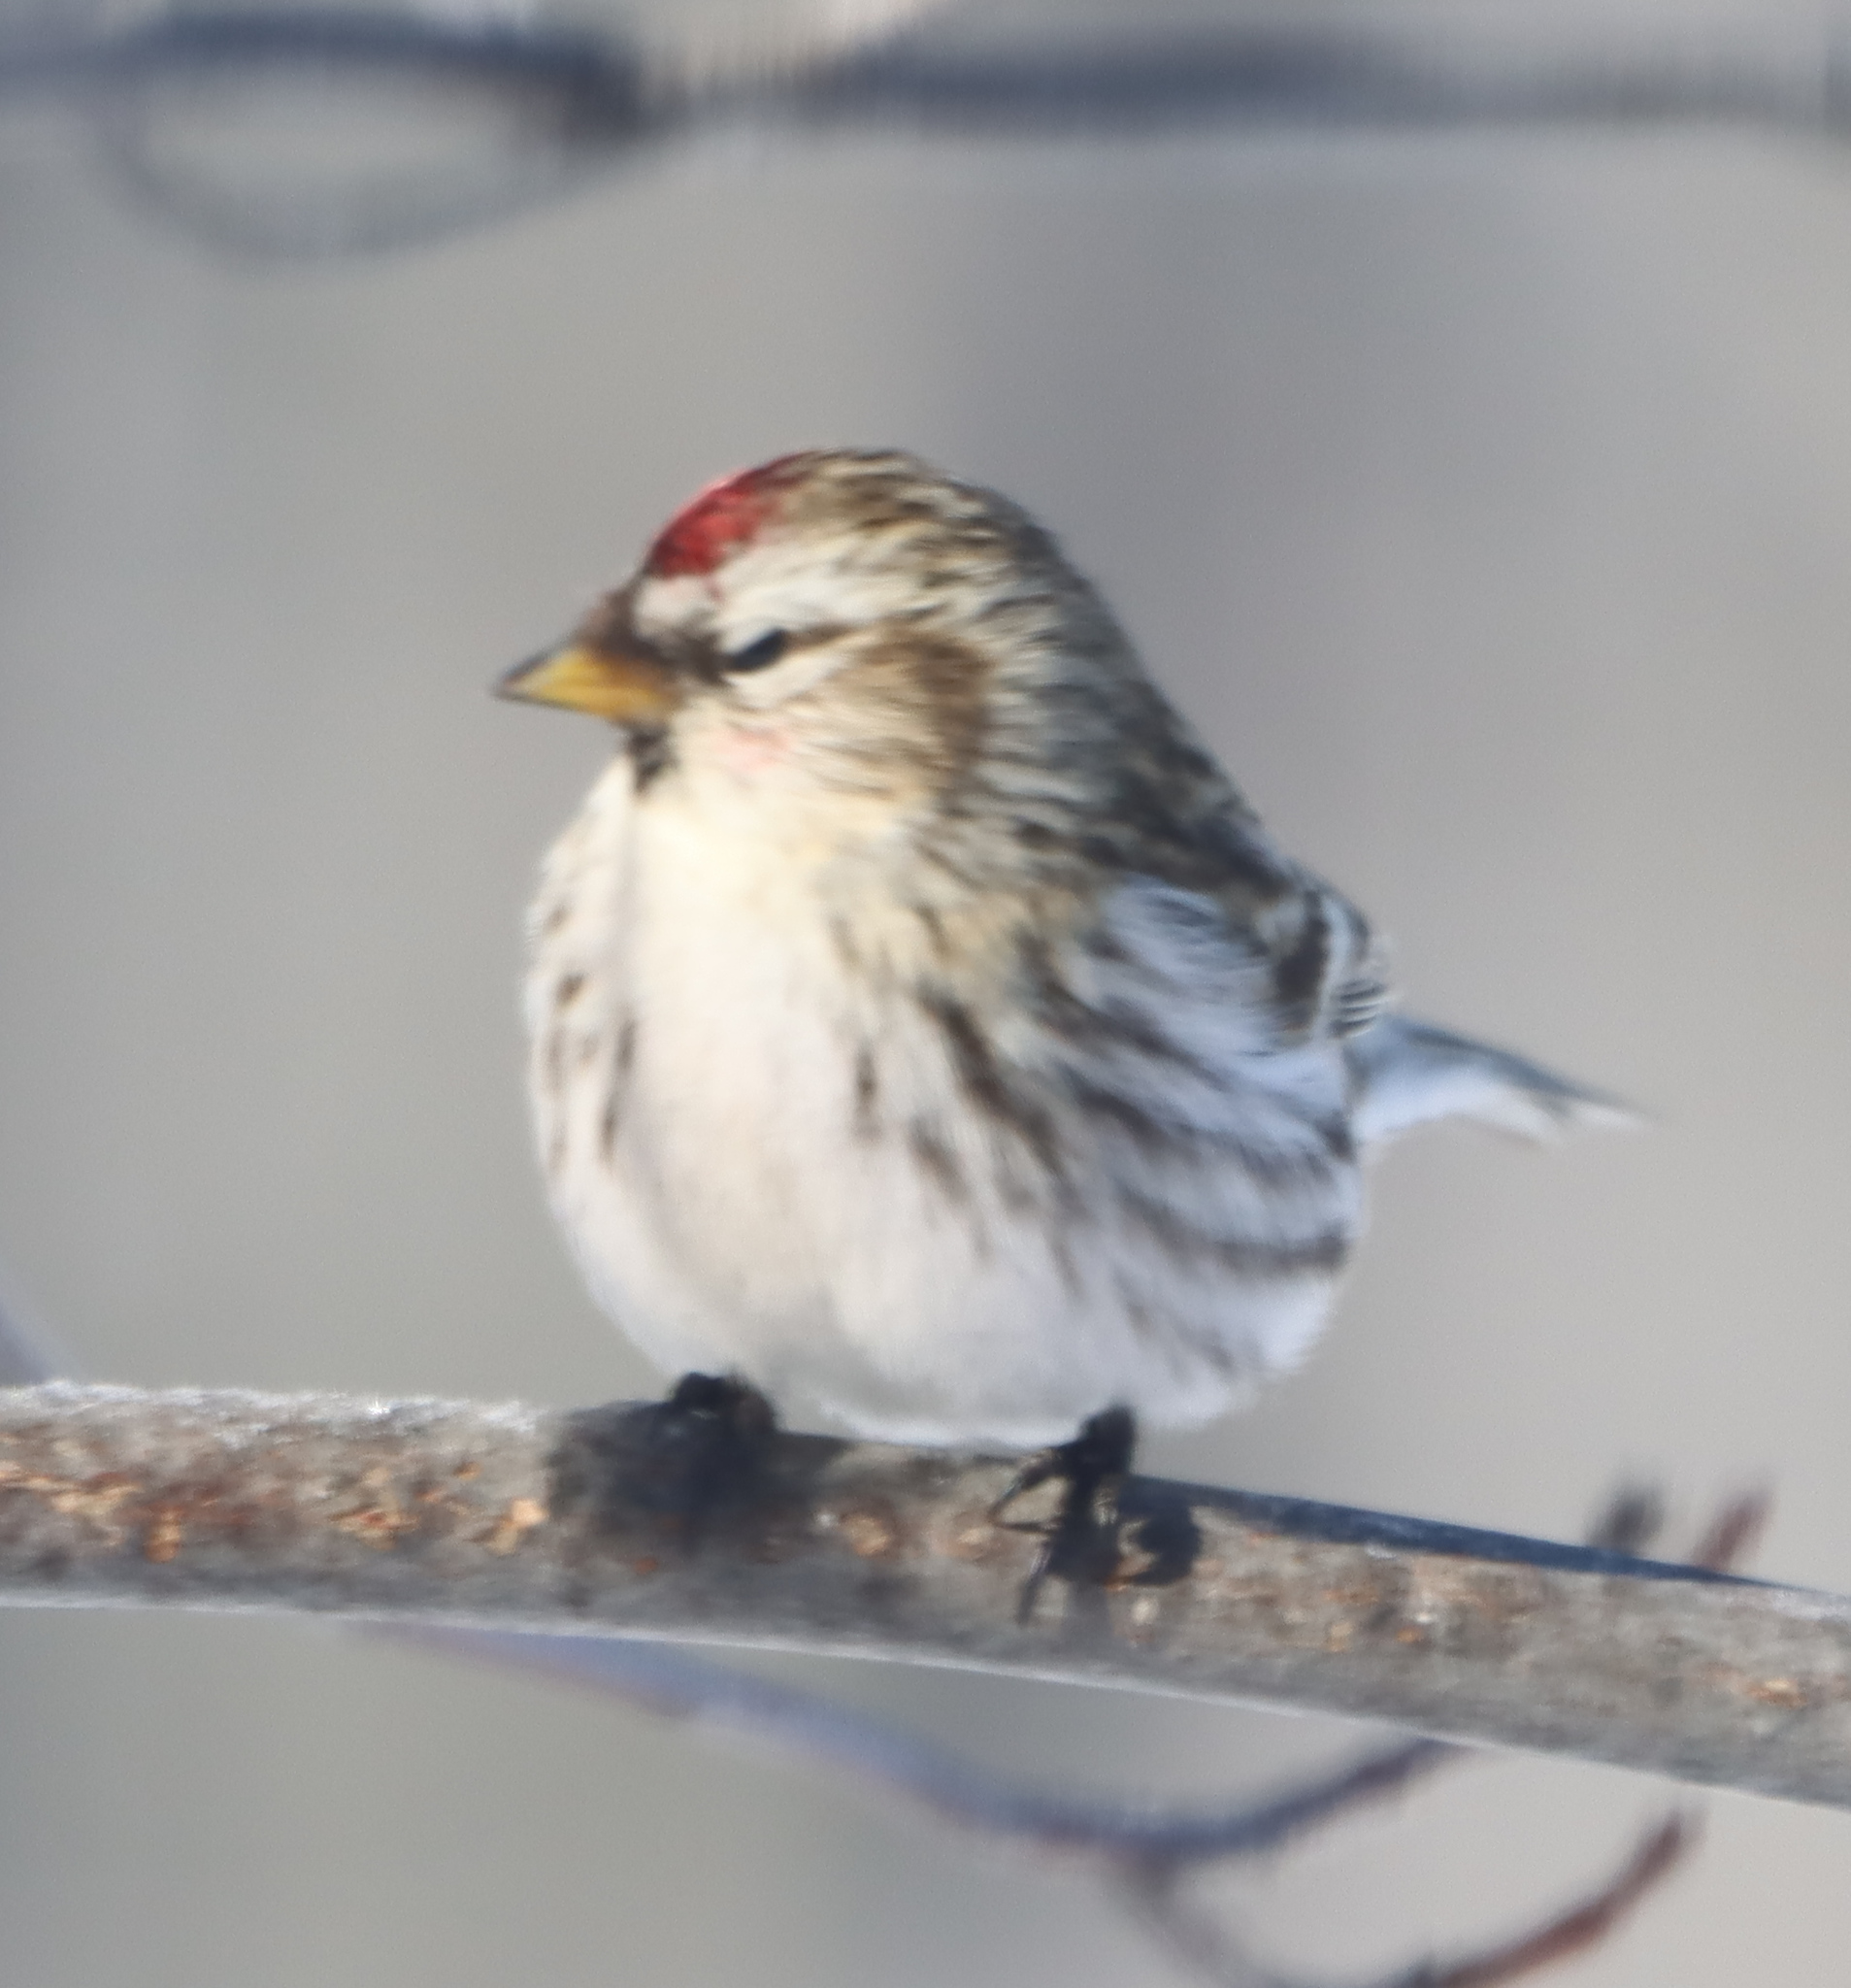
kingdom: Animalia
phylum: Chordata
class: Aves
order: Passeriformes
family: Fringillidae
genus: Acanthis
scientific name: Acanthis flammea
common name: Common redpoll
